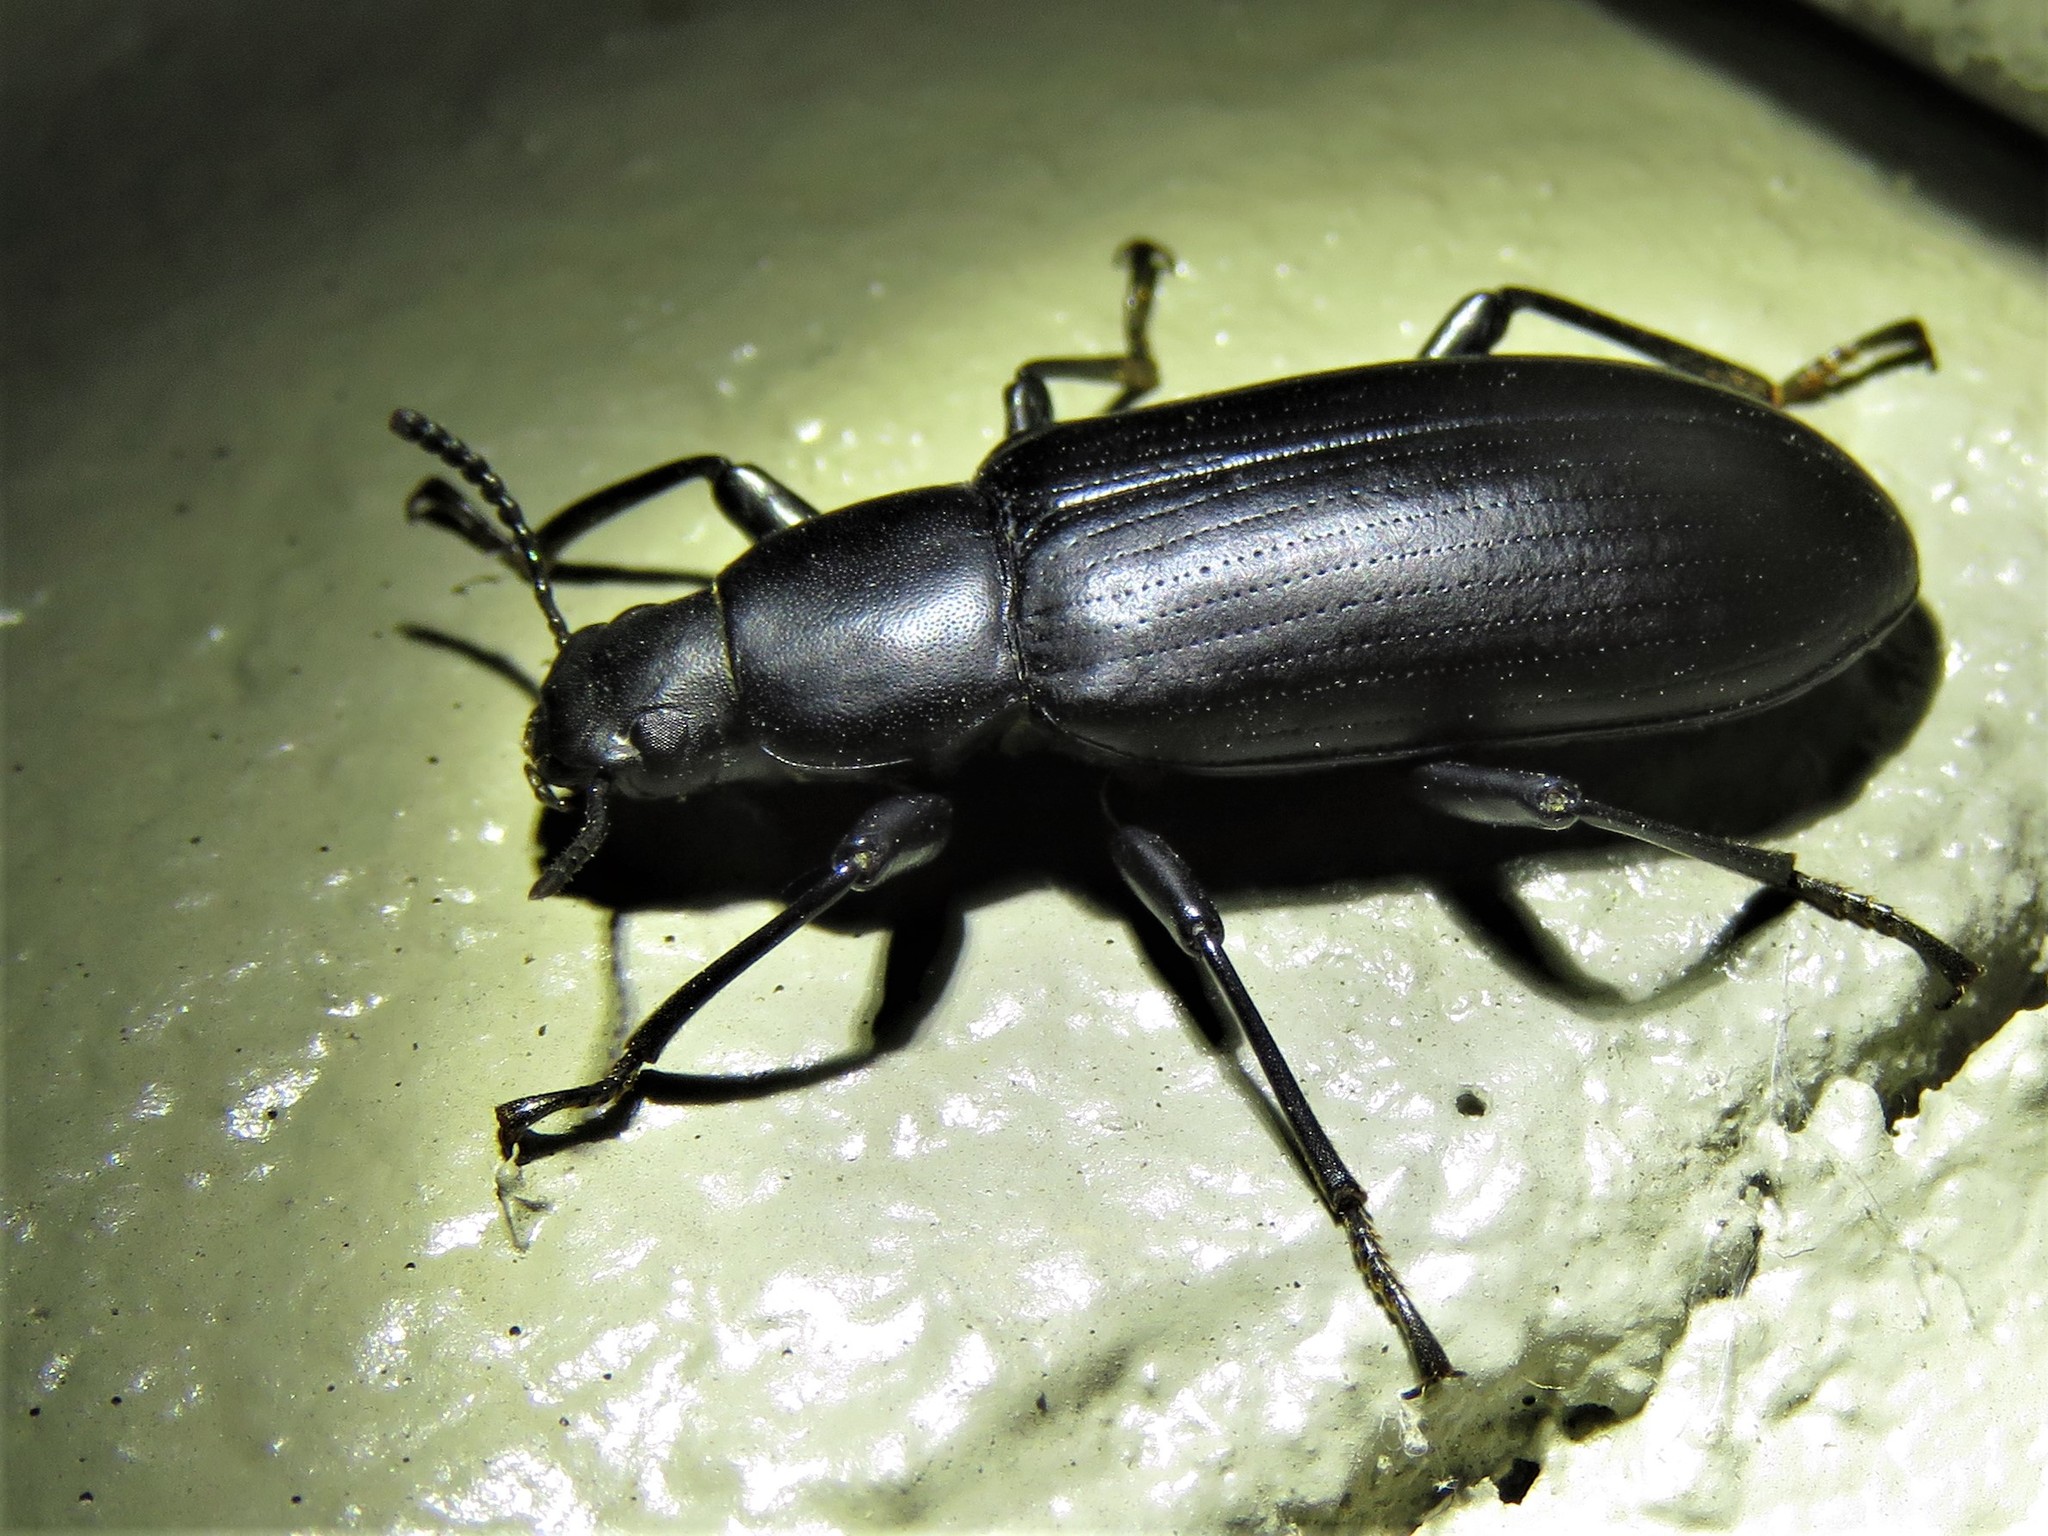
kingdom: Animalia
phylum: Arthropoda
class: Insecta
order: Coleoptera
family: Tenebrionidae
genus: Alobates
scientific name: Alobates
